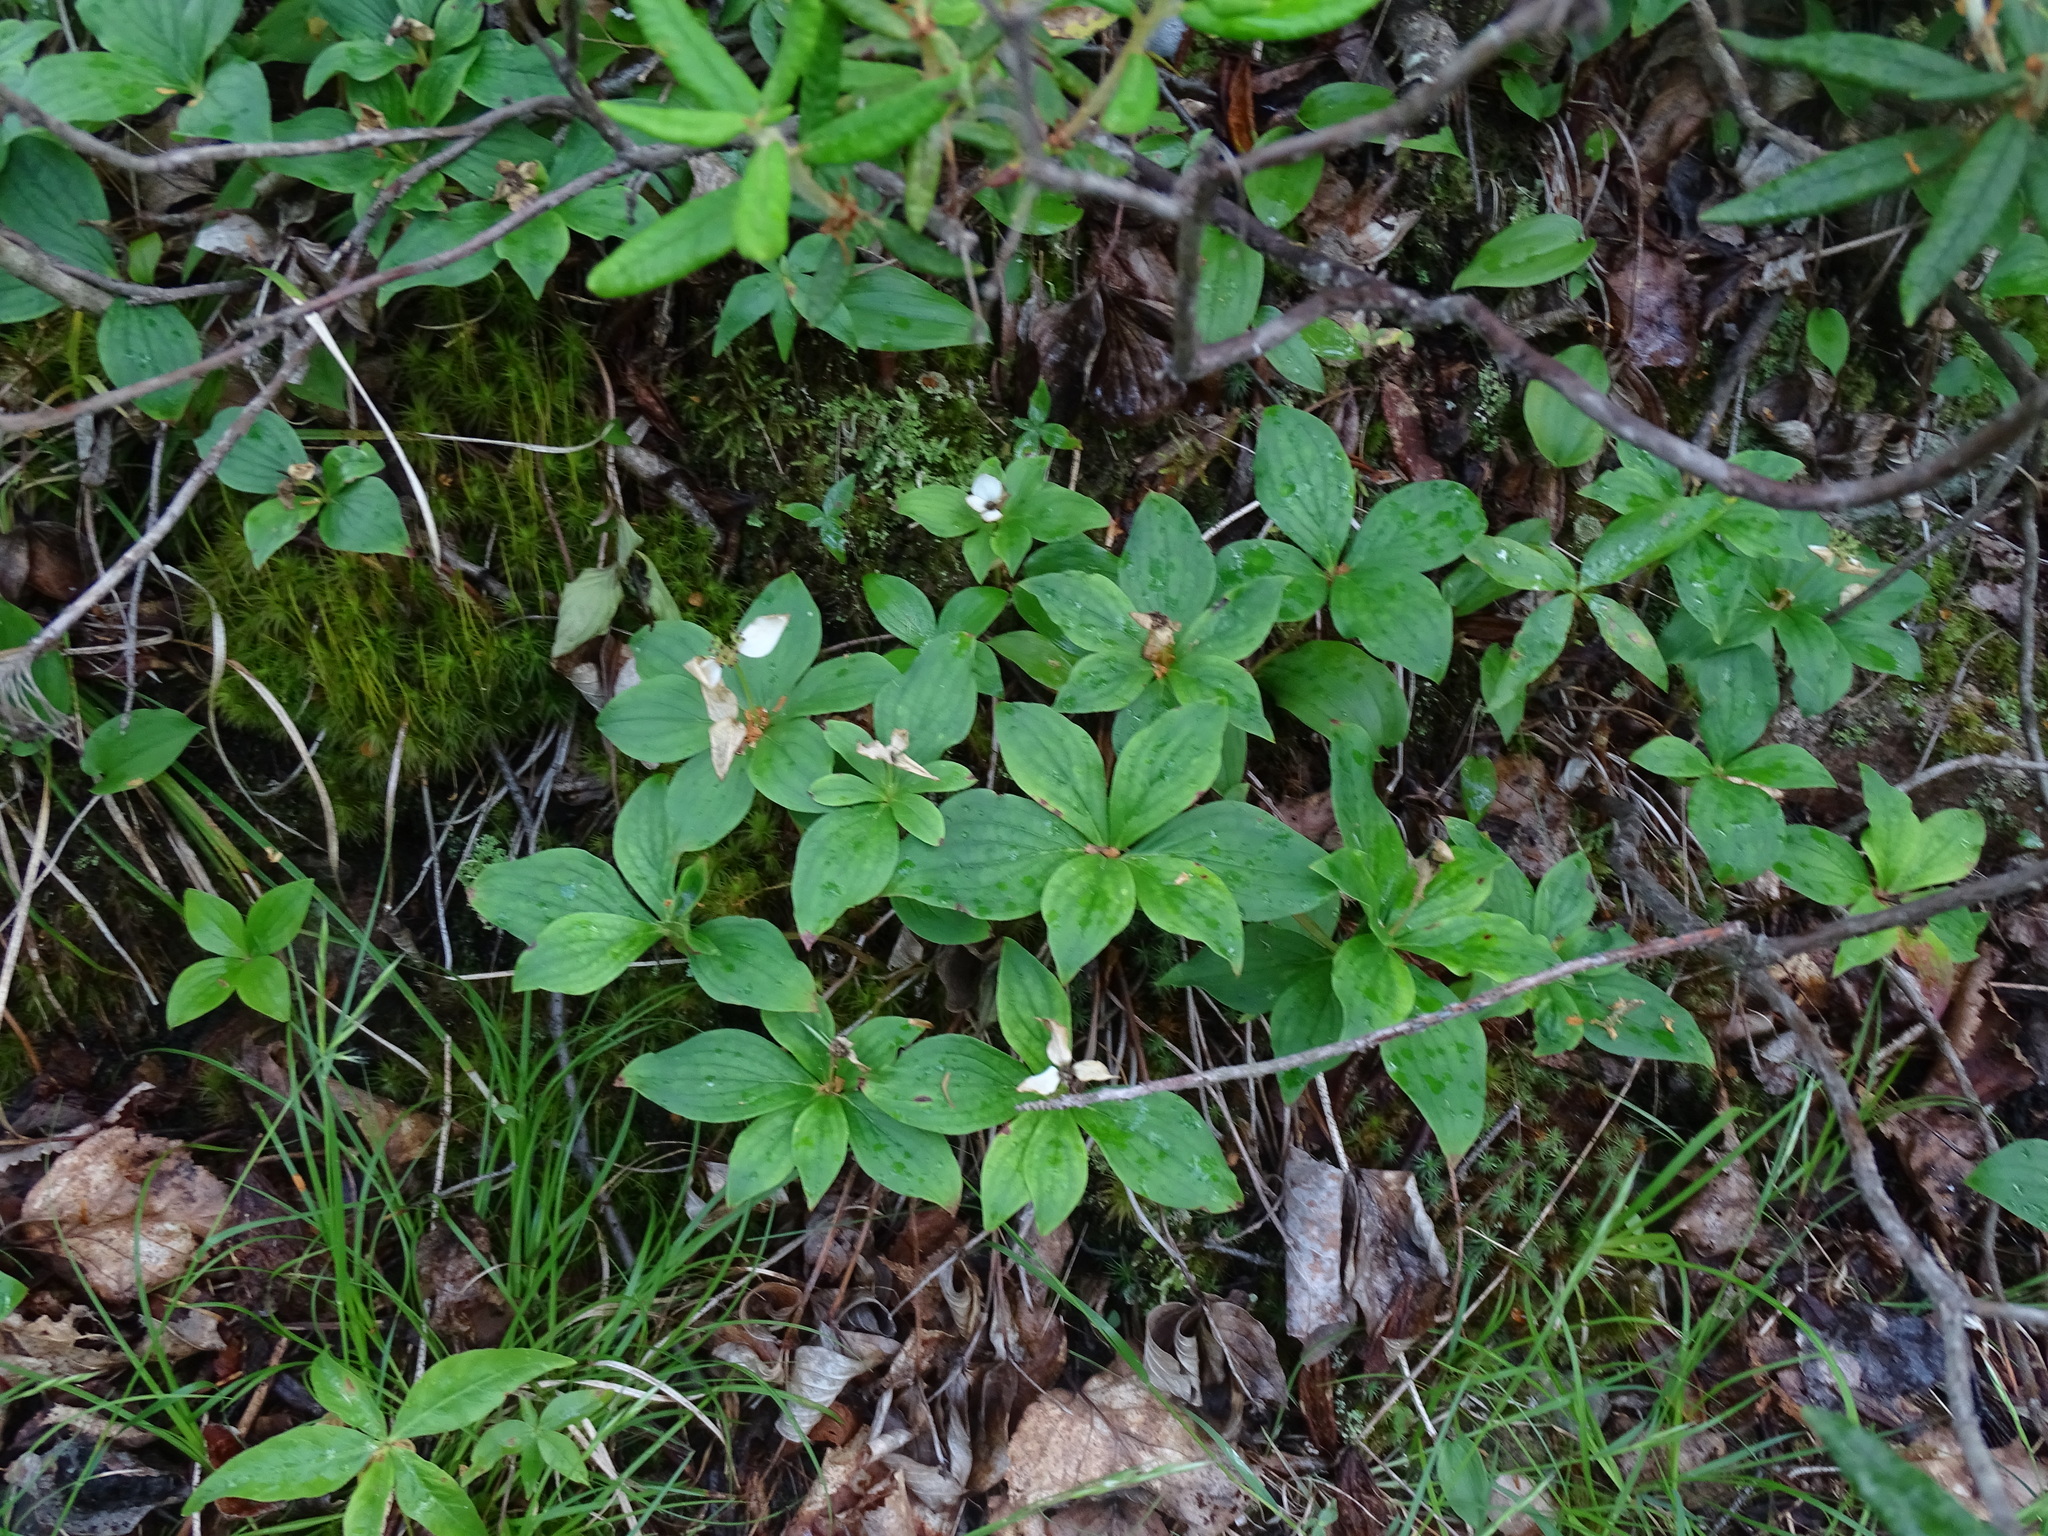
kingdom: Plantae
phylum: Tracheophyta
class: Magnoliopsida
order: Cornales
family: Cornaceae
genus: Cornus
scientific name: Cornus canadensis
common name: Creeping dogwood
